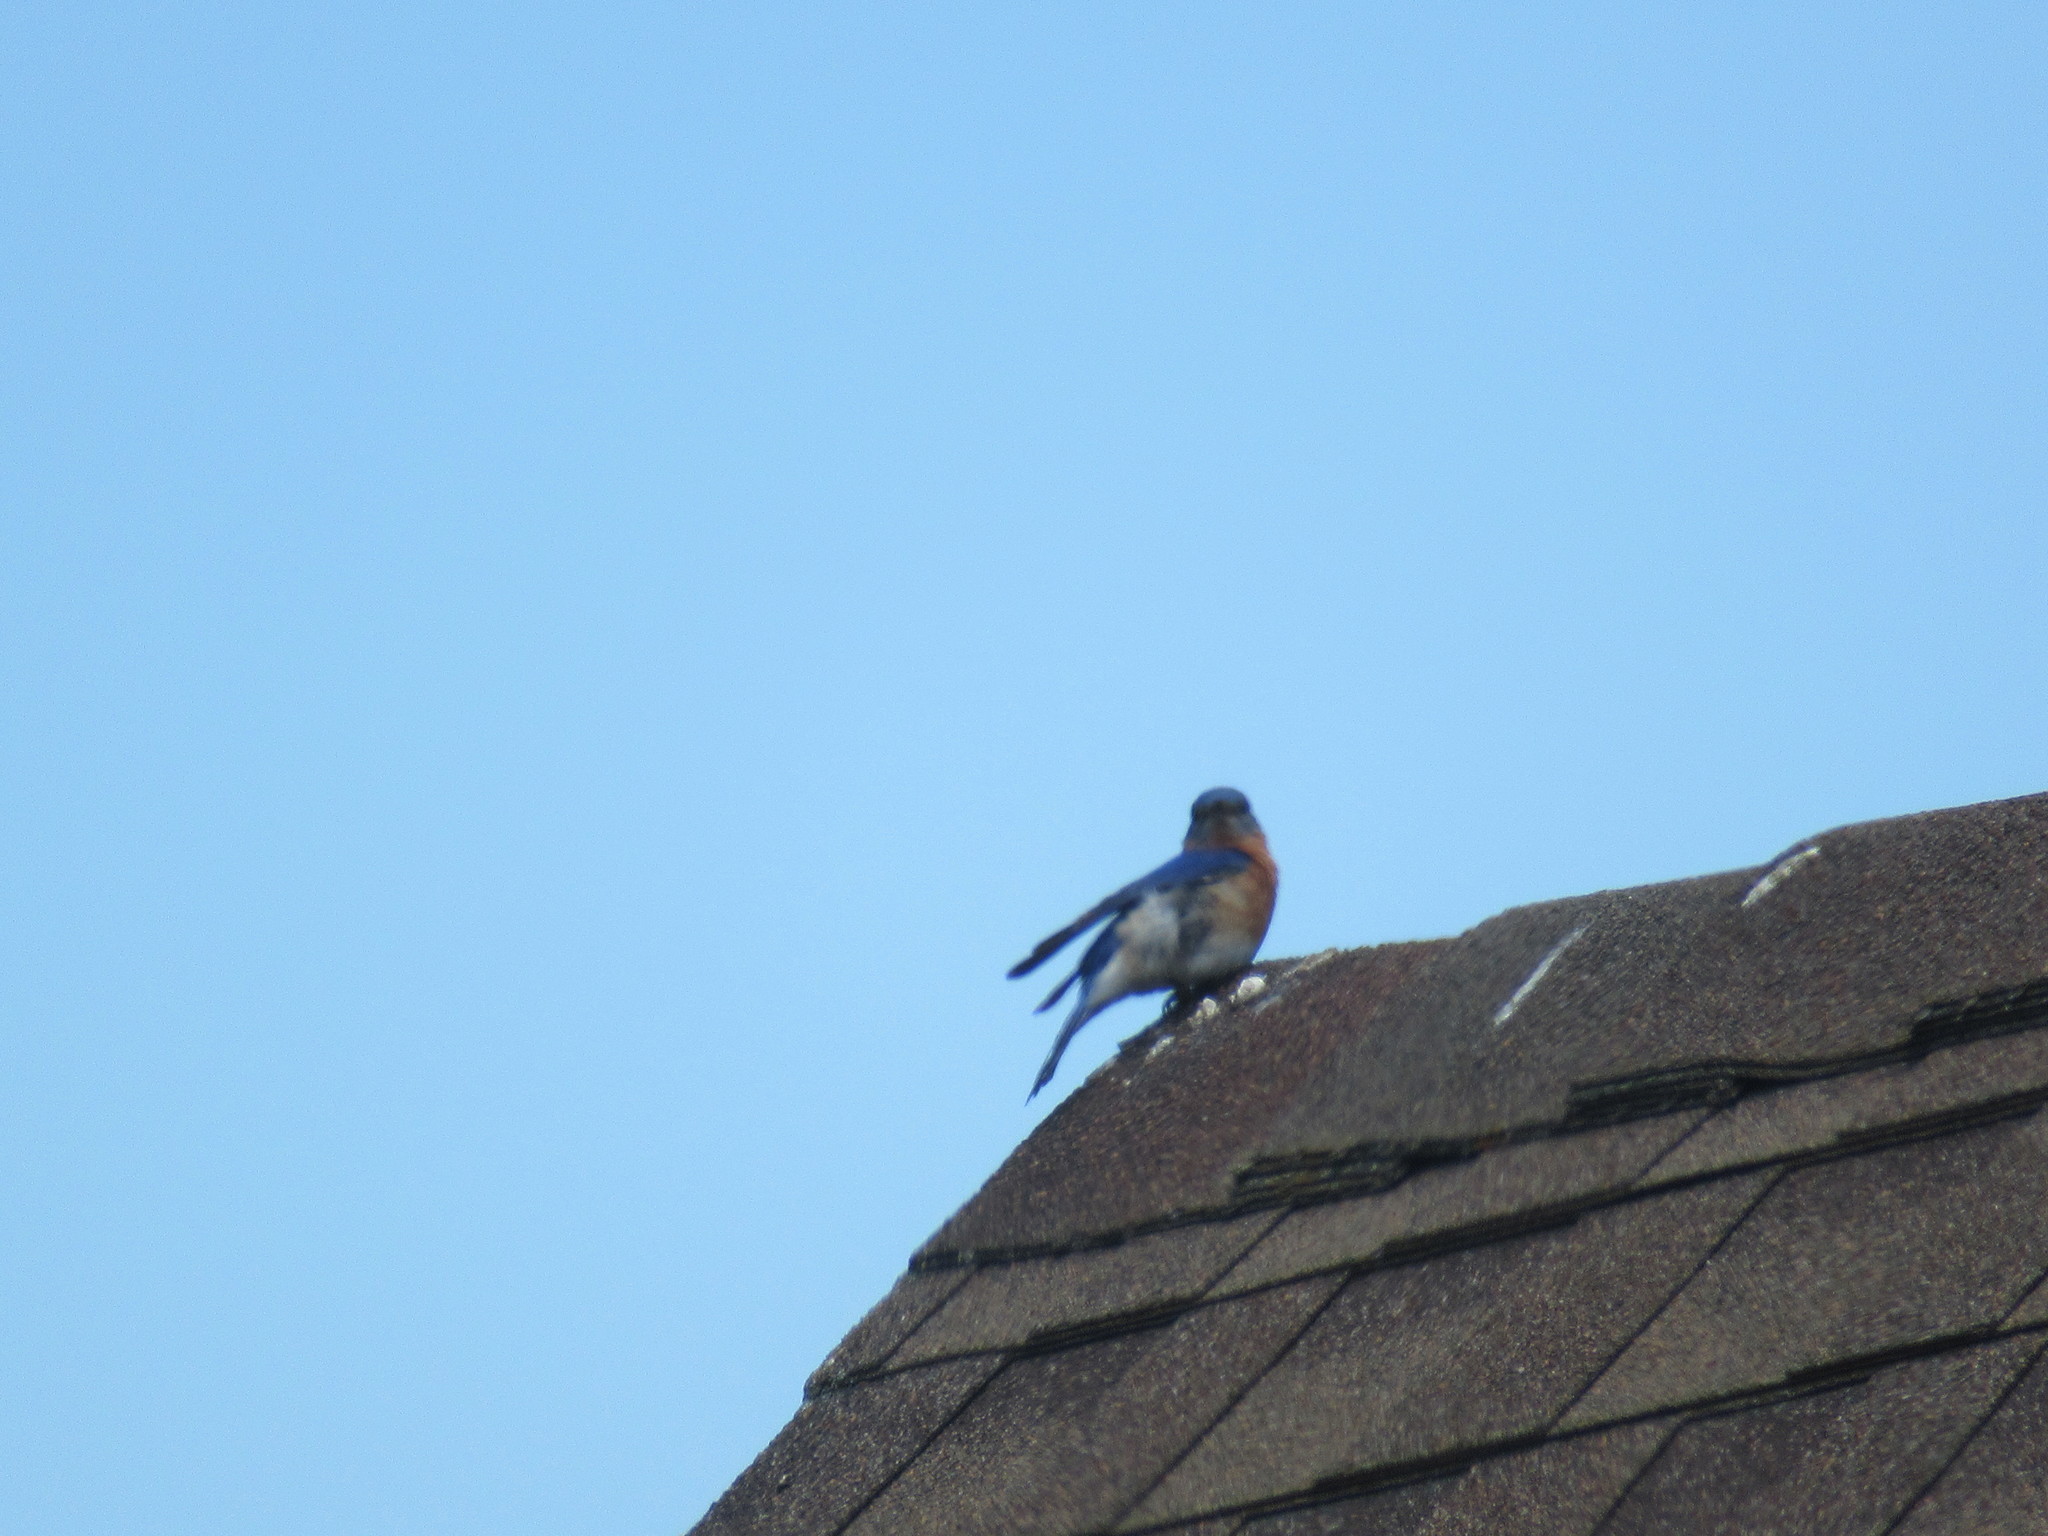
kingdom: Animalia
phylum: Chordata
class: Aves
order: Passeriformes
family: Turdidae
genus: Sialia
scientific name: Sialia sialis
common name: Eastern bluebird
